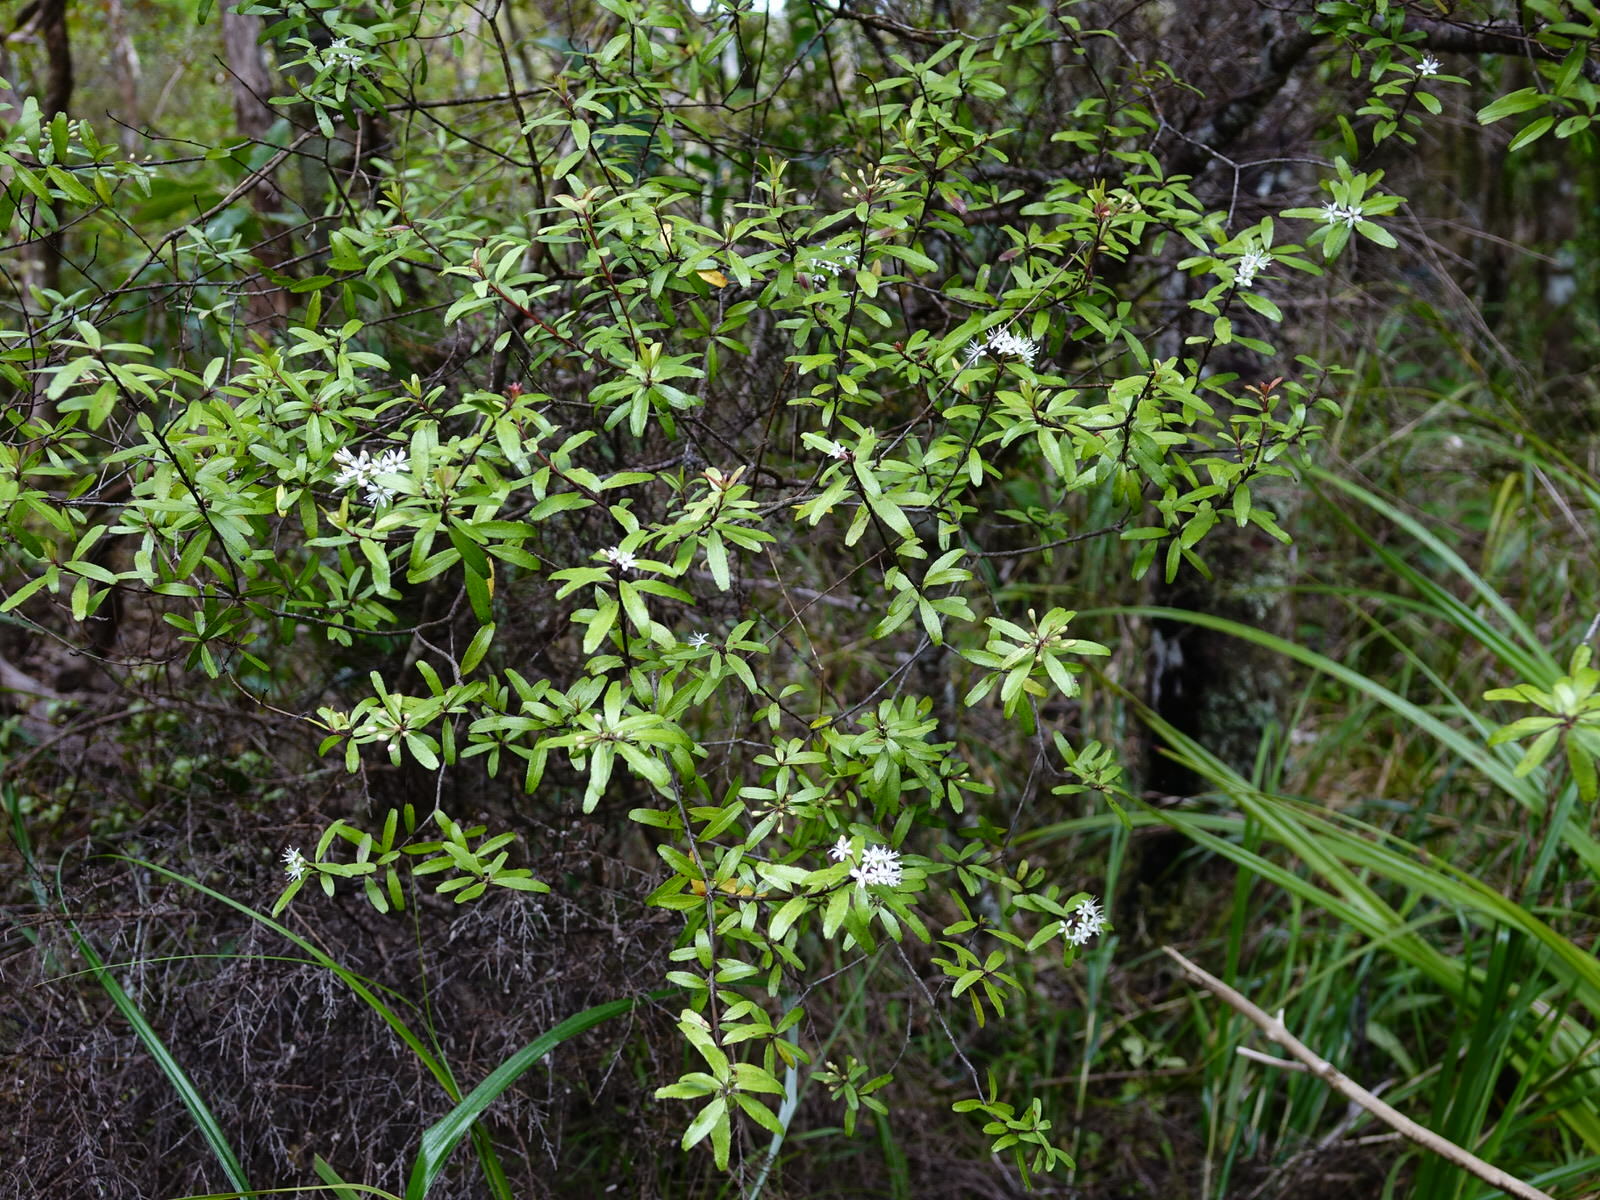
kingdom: Plantae
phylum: Tracheophyta
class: Magnoliopsida
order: Sapindales
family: Rutaceae
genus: Leionema
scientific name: Leionema nudum
